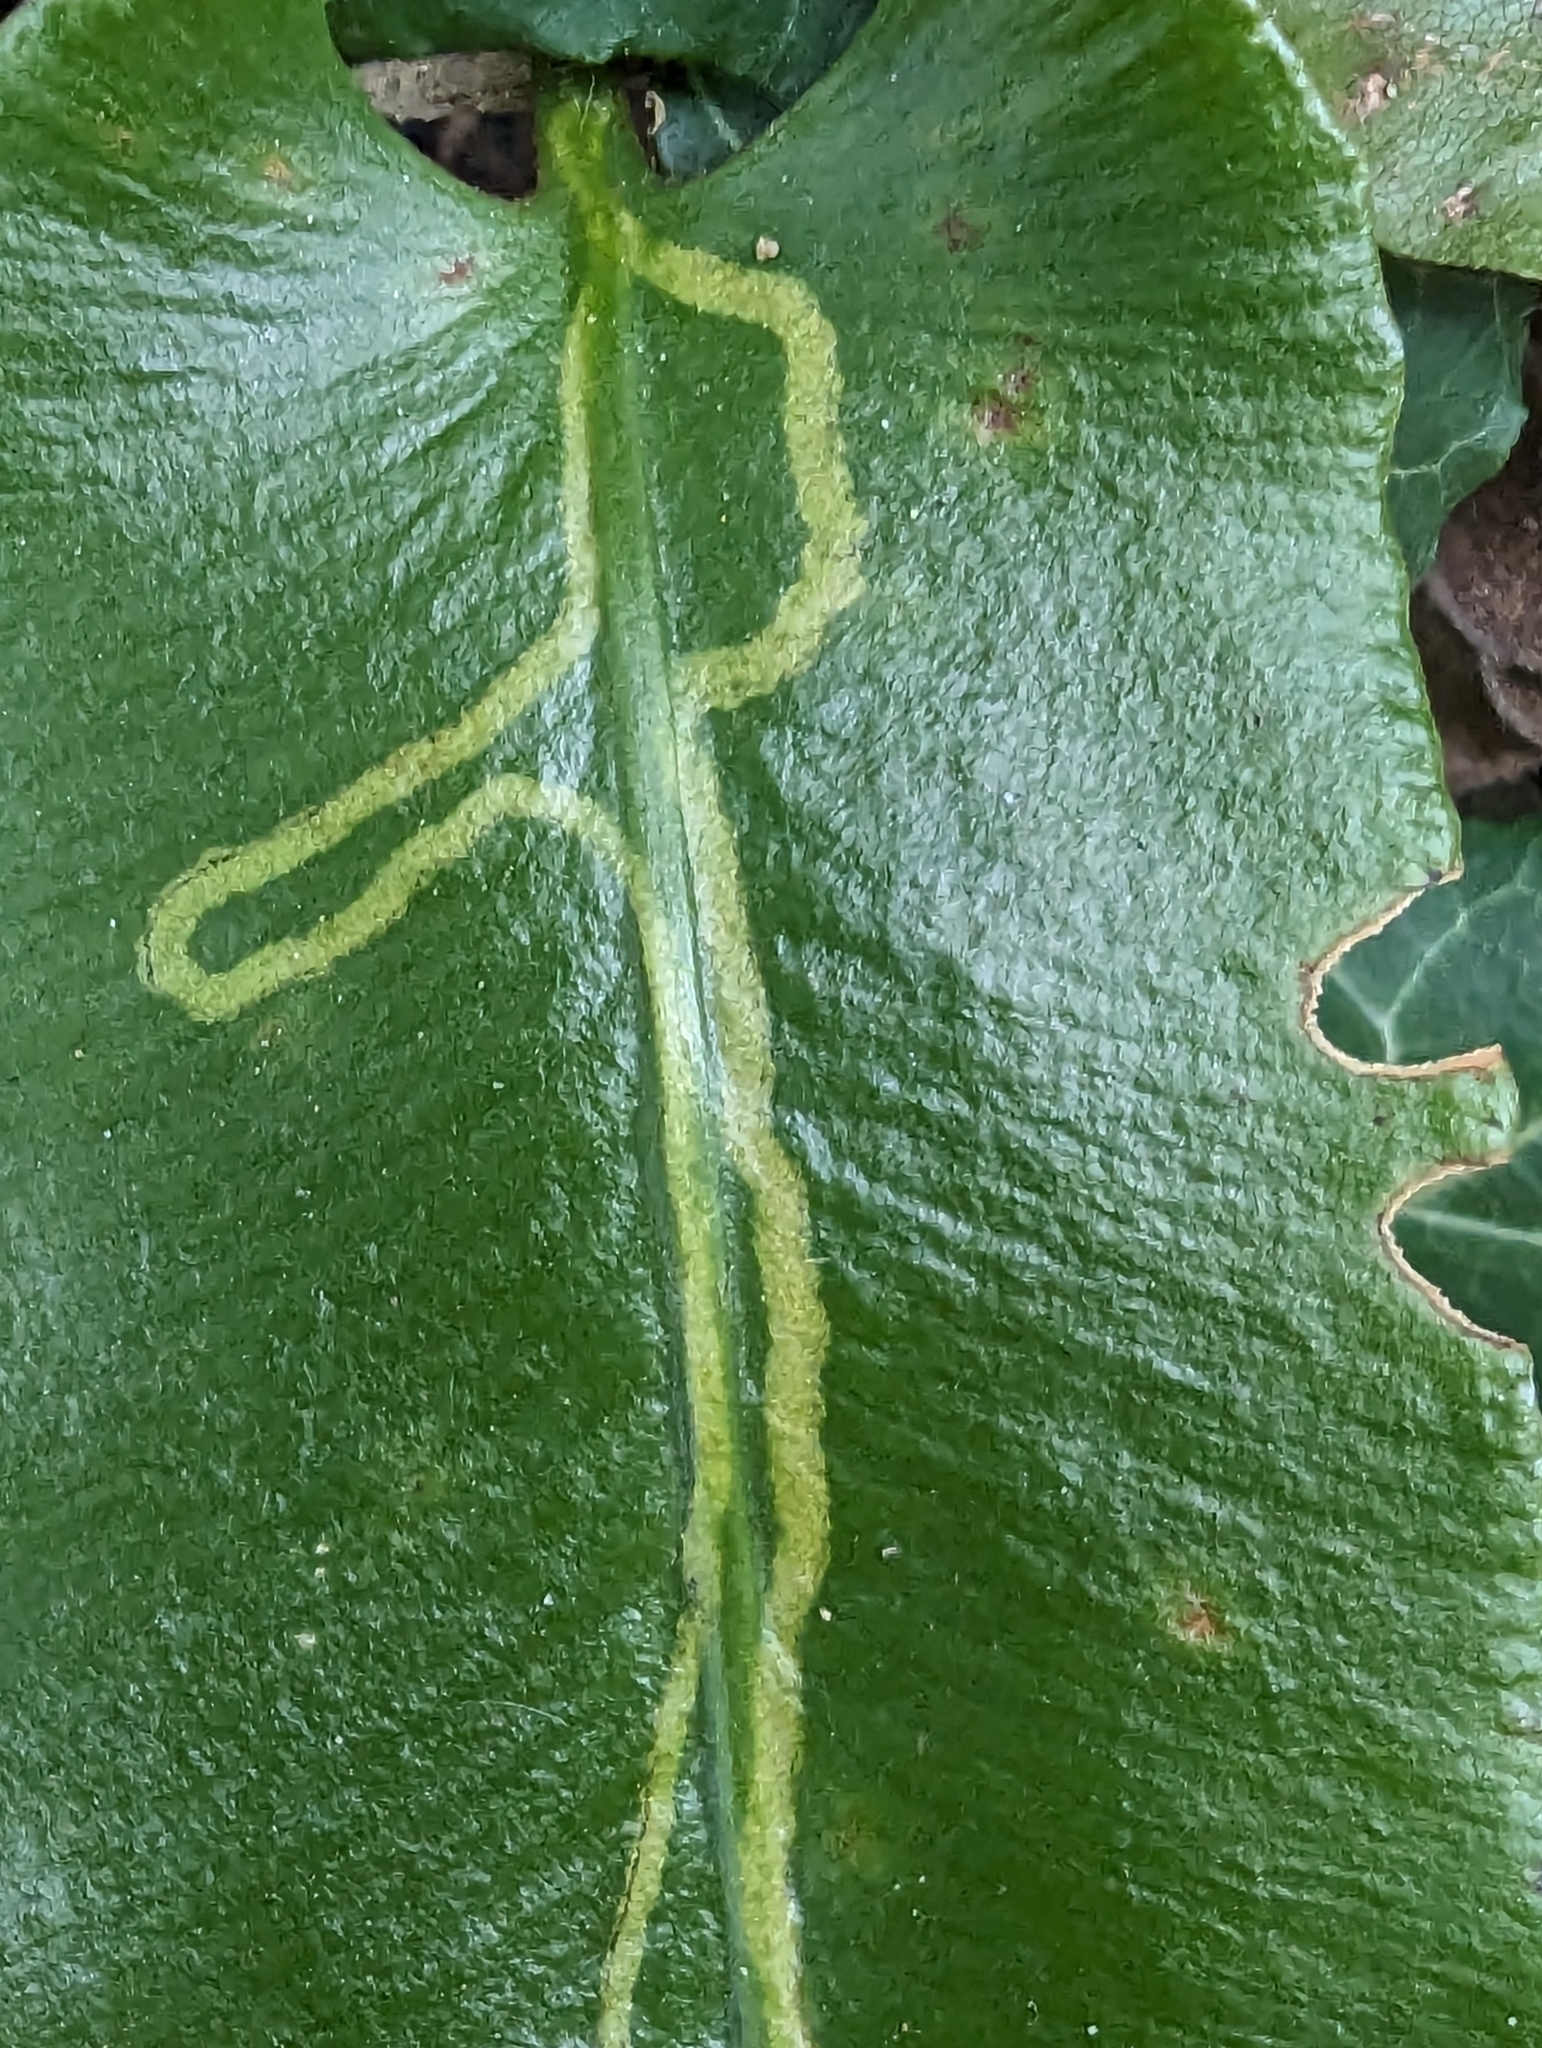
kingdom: Animalia
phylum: Arthropoda
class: Insecta
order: Diptera
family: Agromyzidae
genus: Phytomyza
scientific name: Phytomyza scolopendri
